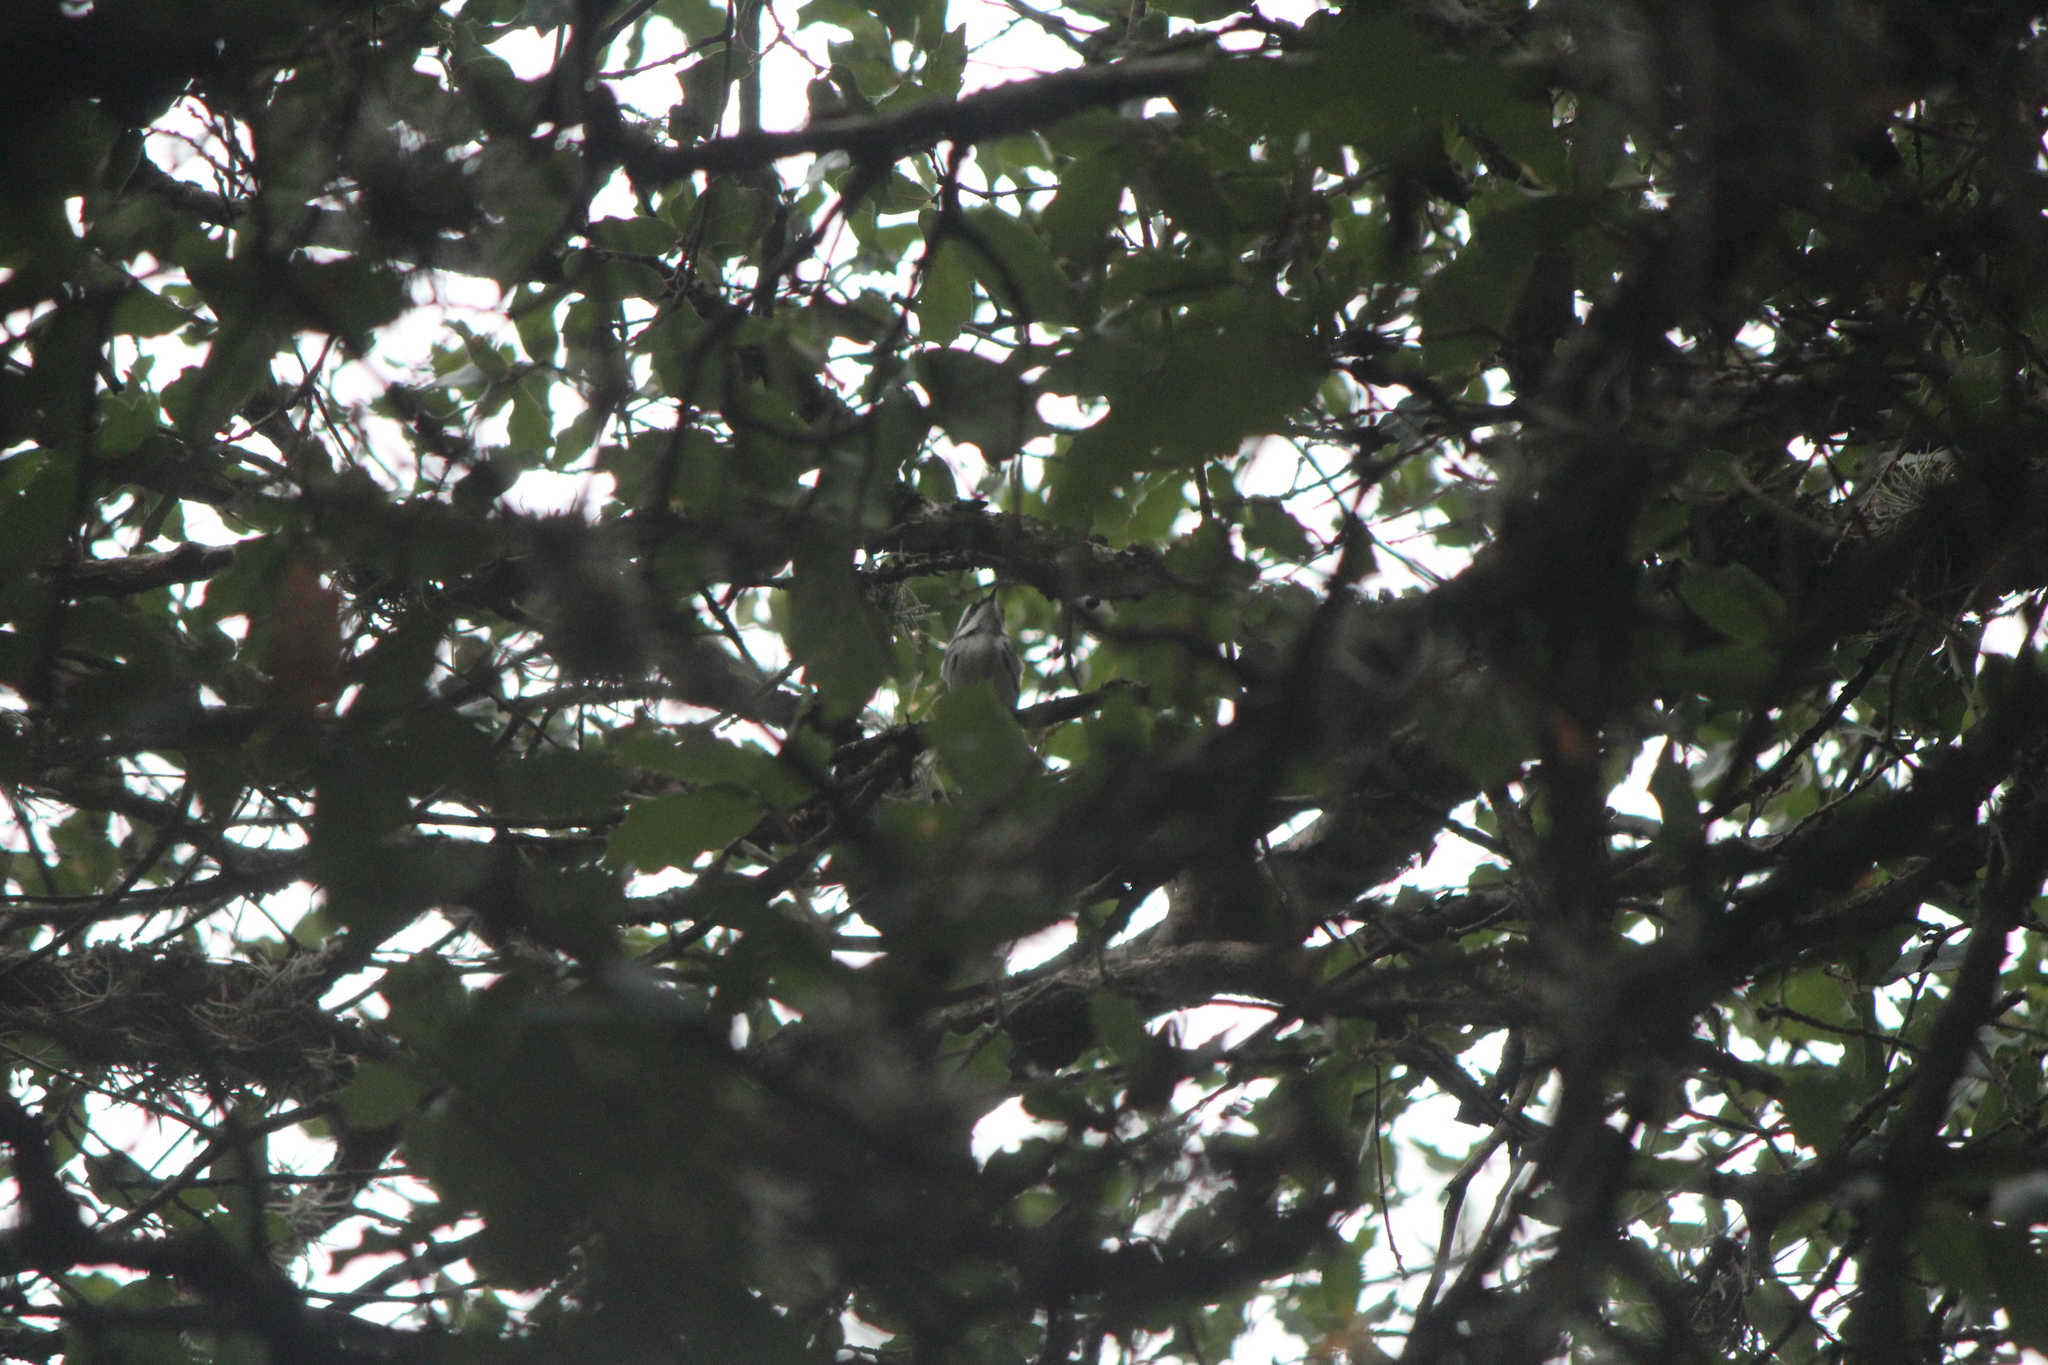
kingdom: Animalia
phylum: Chordata
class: Aves
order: Passeriformes
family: Parulidae
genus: Setophaga
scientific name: Setophaga nigrescens
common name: Black-throated gray warbler
